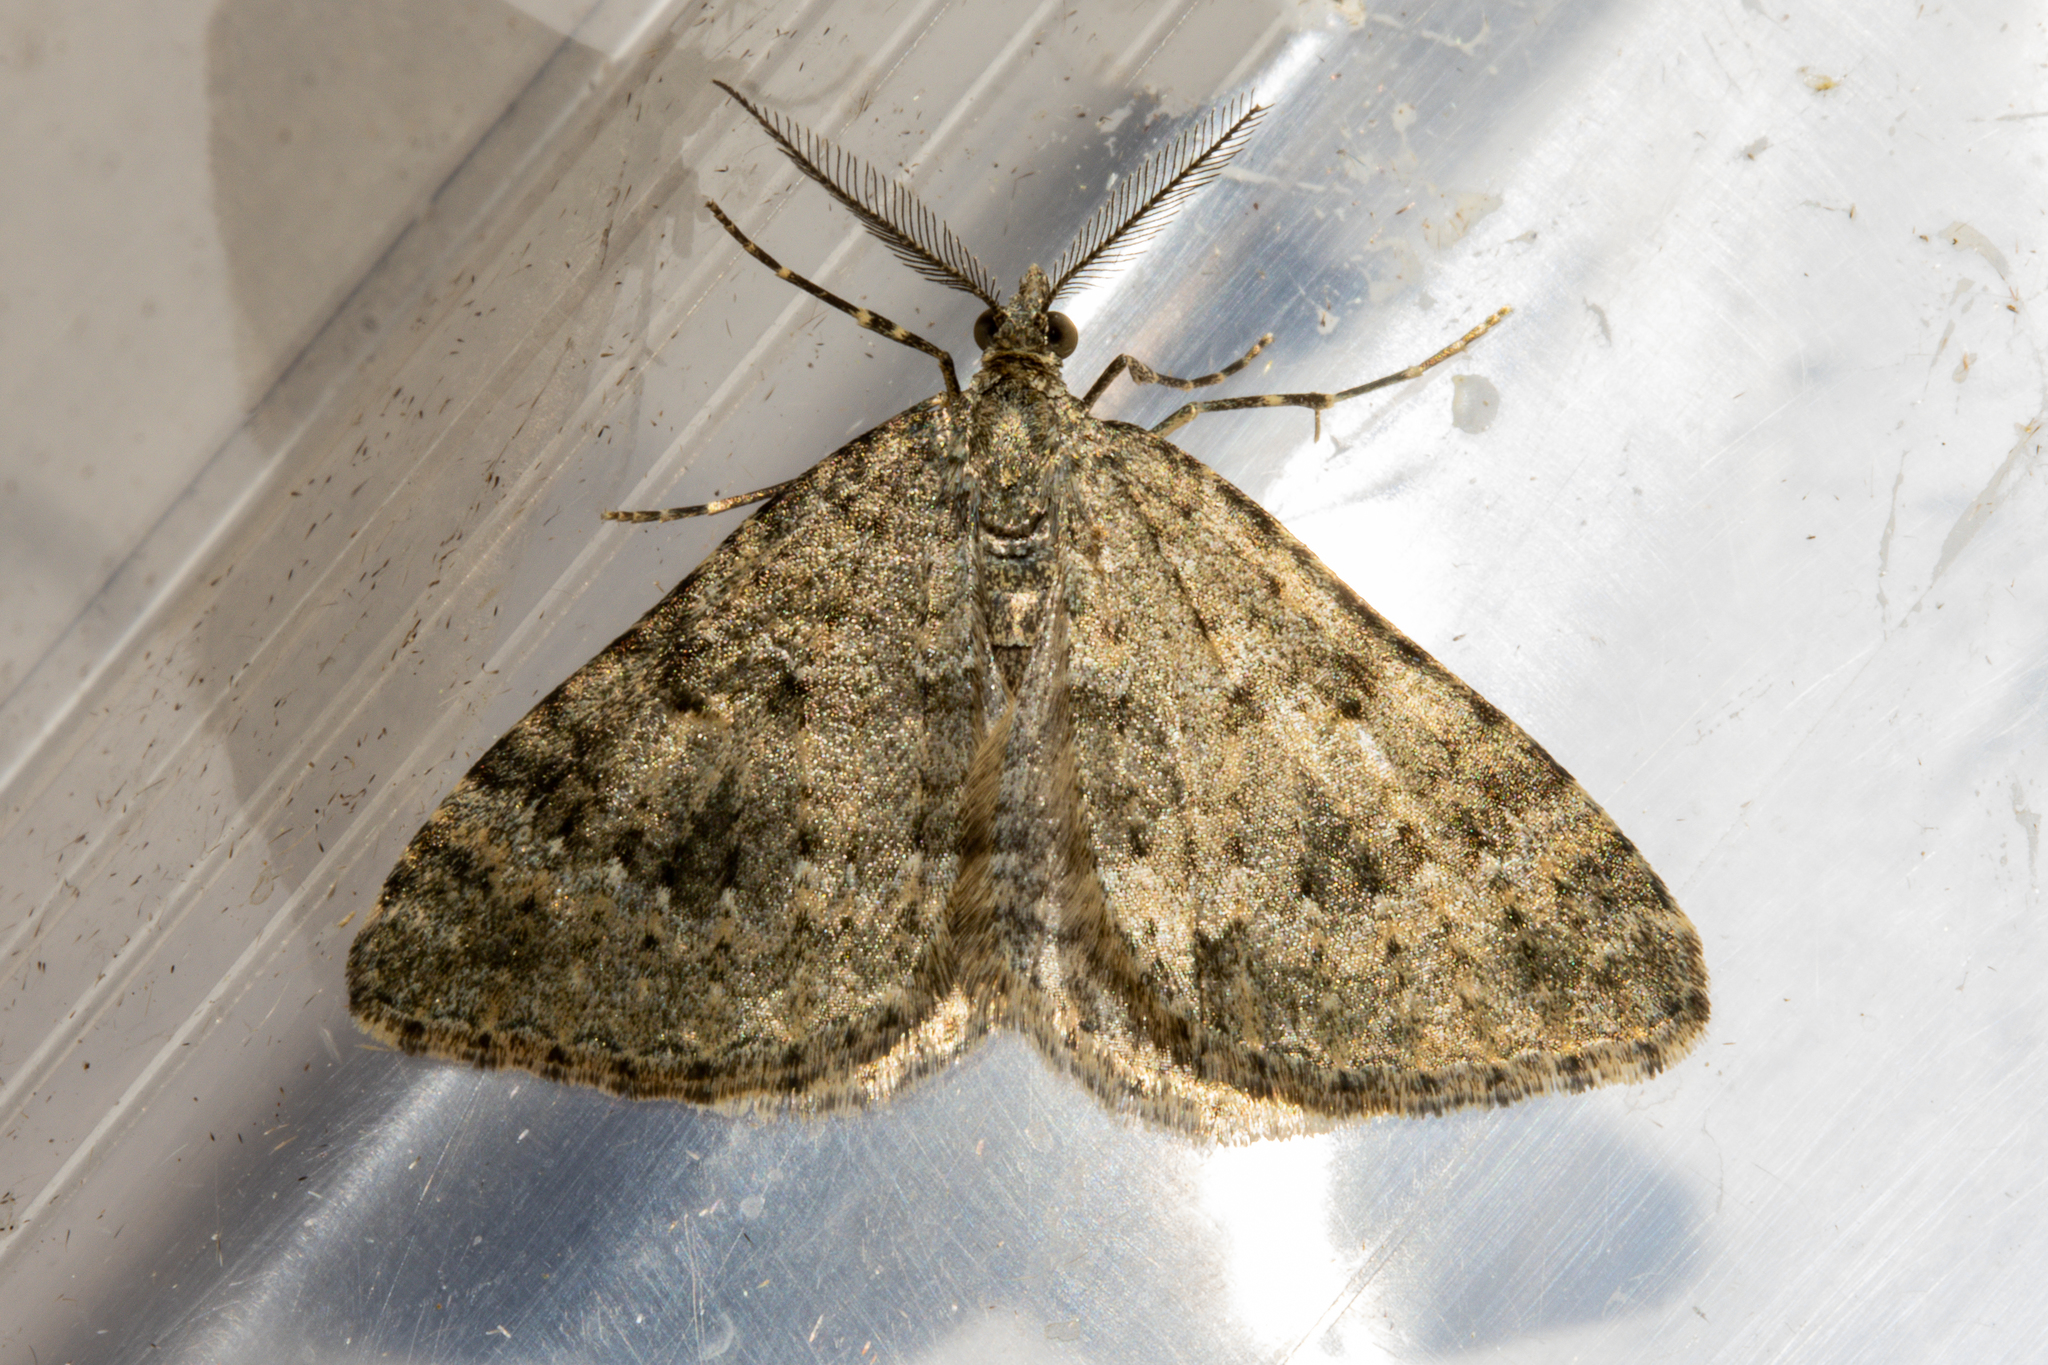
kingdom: Animalia
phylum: Arthropoda
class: Insecta
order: Lepidoptera
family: Geometridae
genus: Helastia
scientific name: Helastia corcularia
